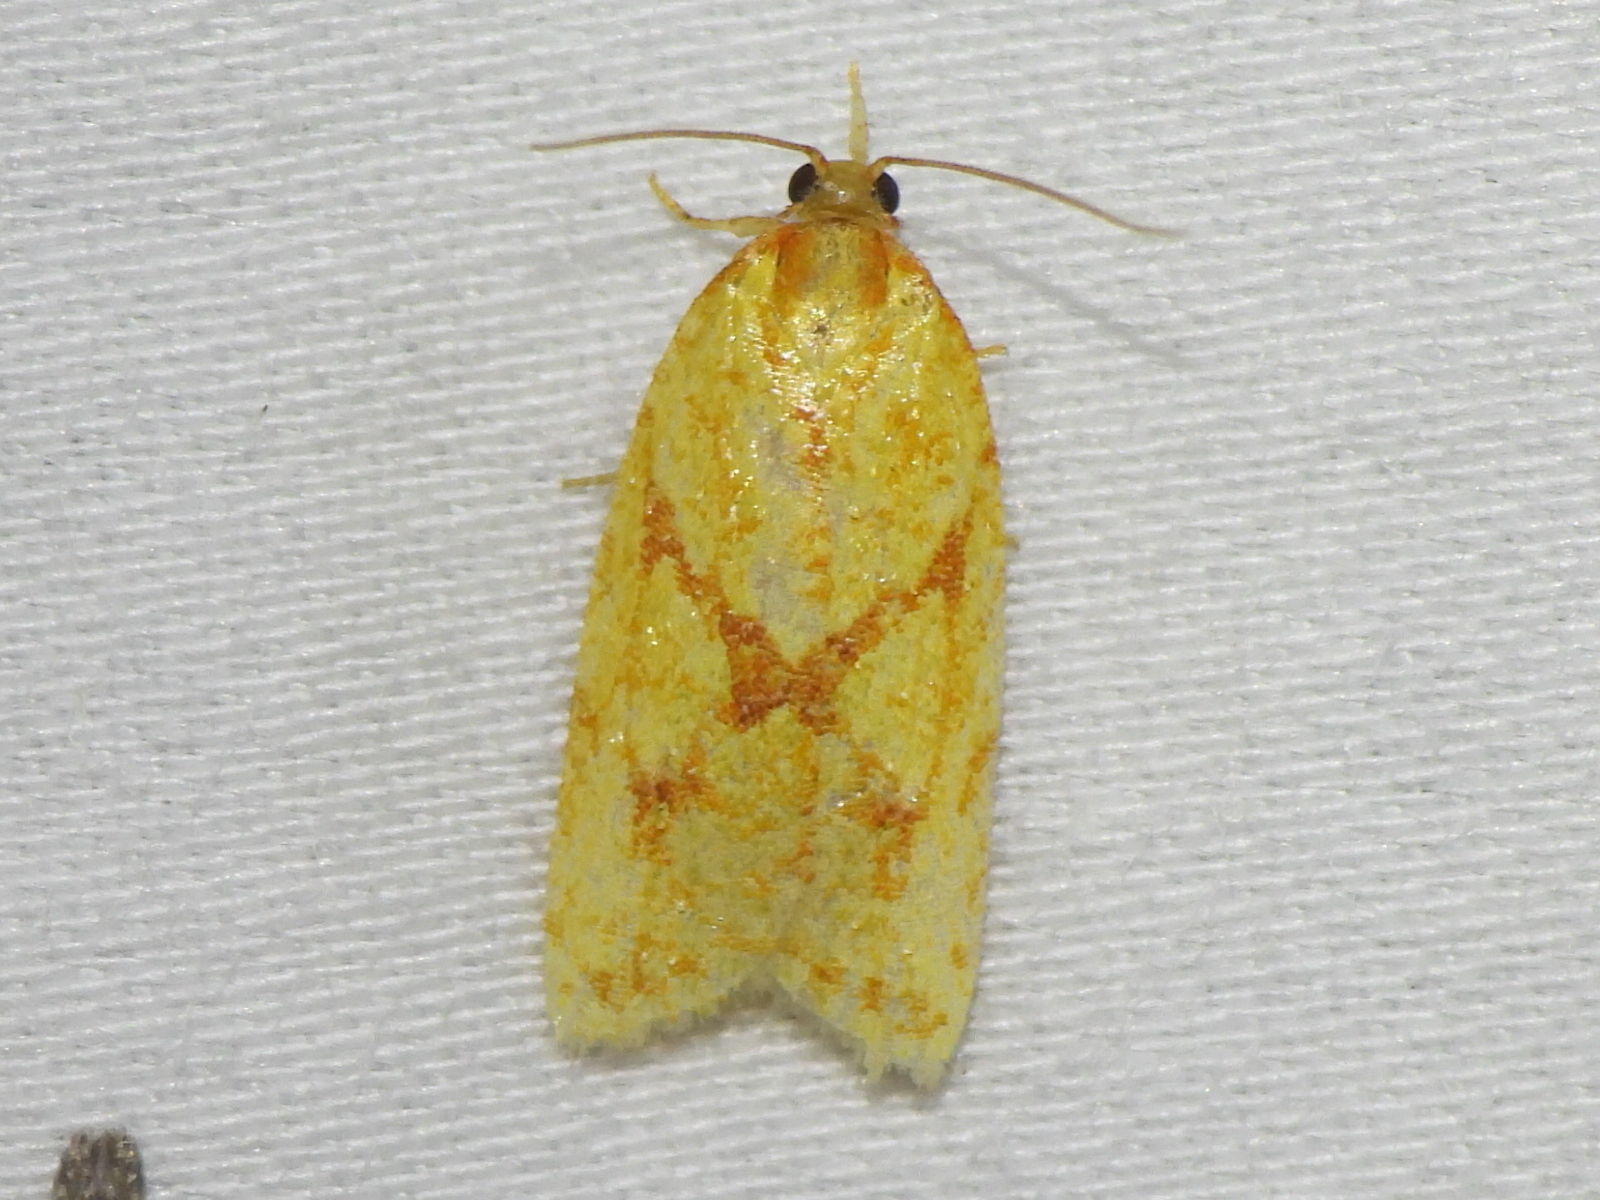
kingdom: Animalia
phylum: Arthropoda
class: Insecta
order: Lepidoptera
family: Tortricidae
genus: Sparganothis
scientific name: Sparganothis sulfureana
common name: Sparganothis fruitworm moth
